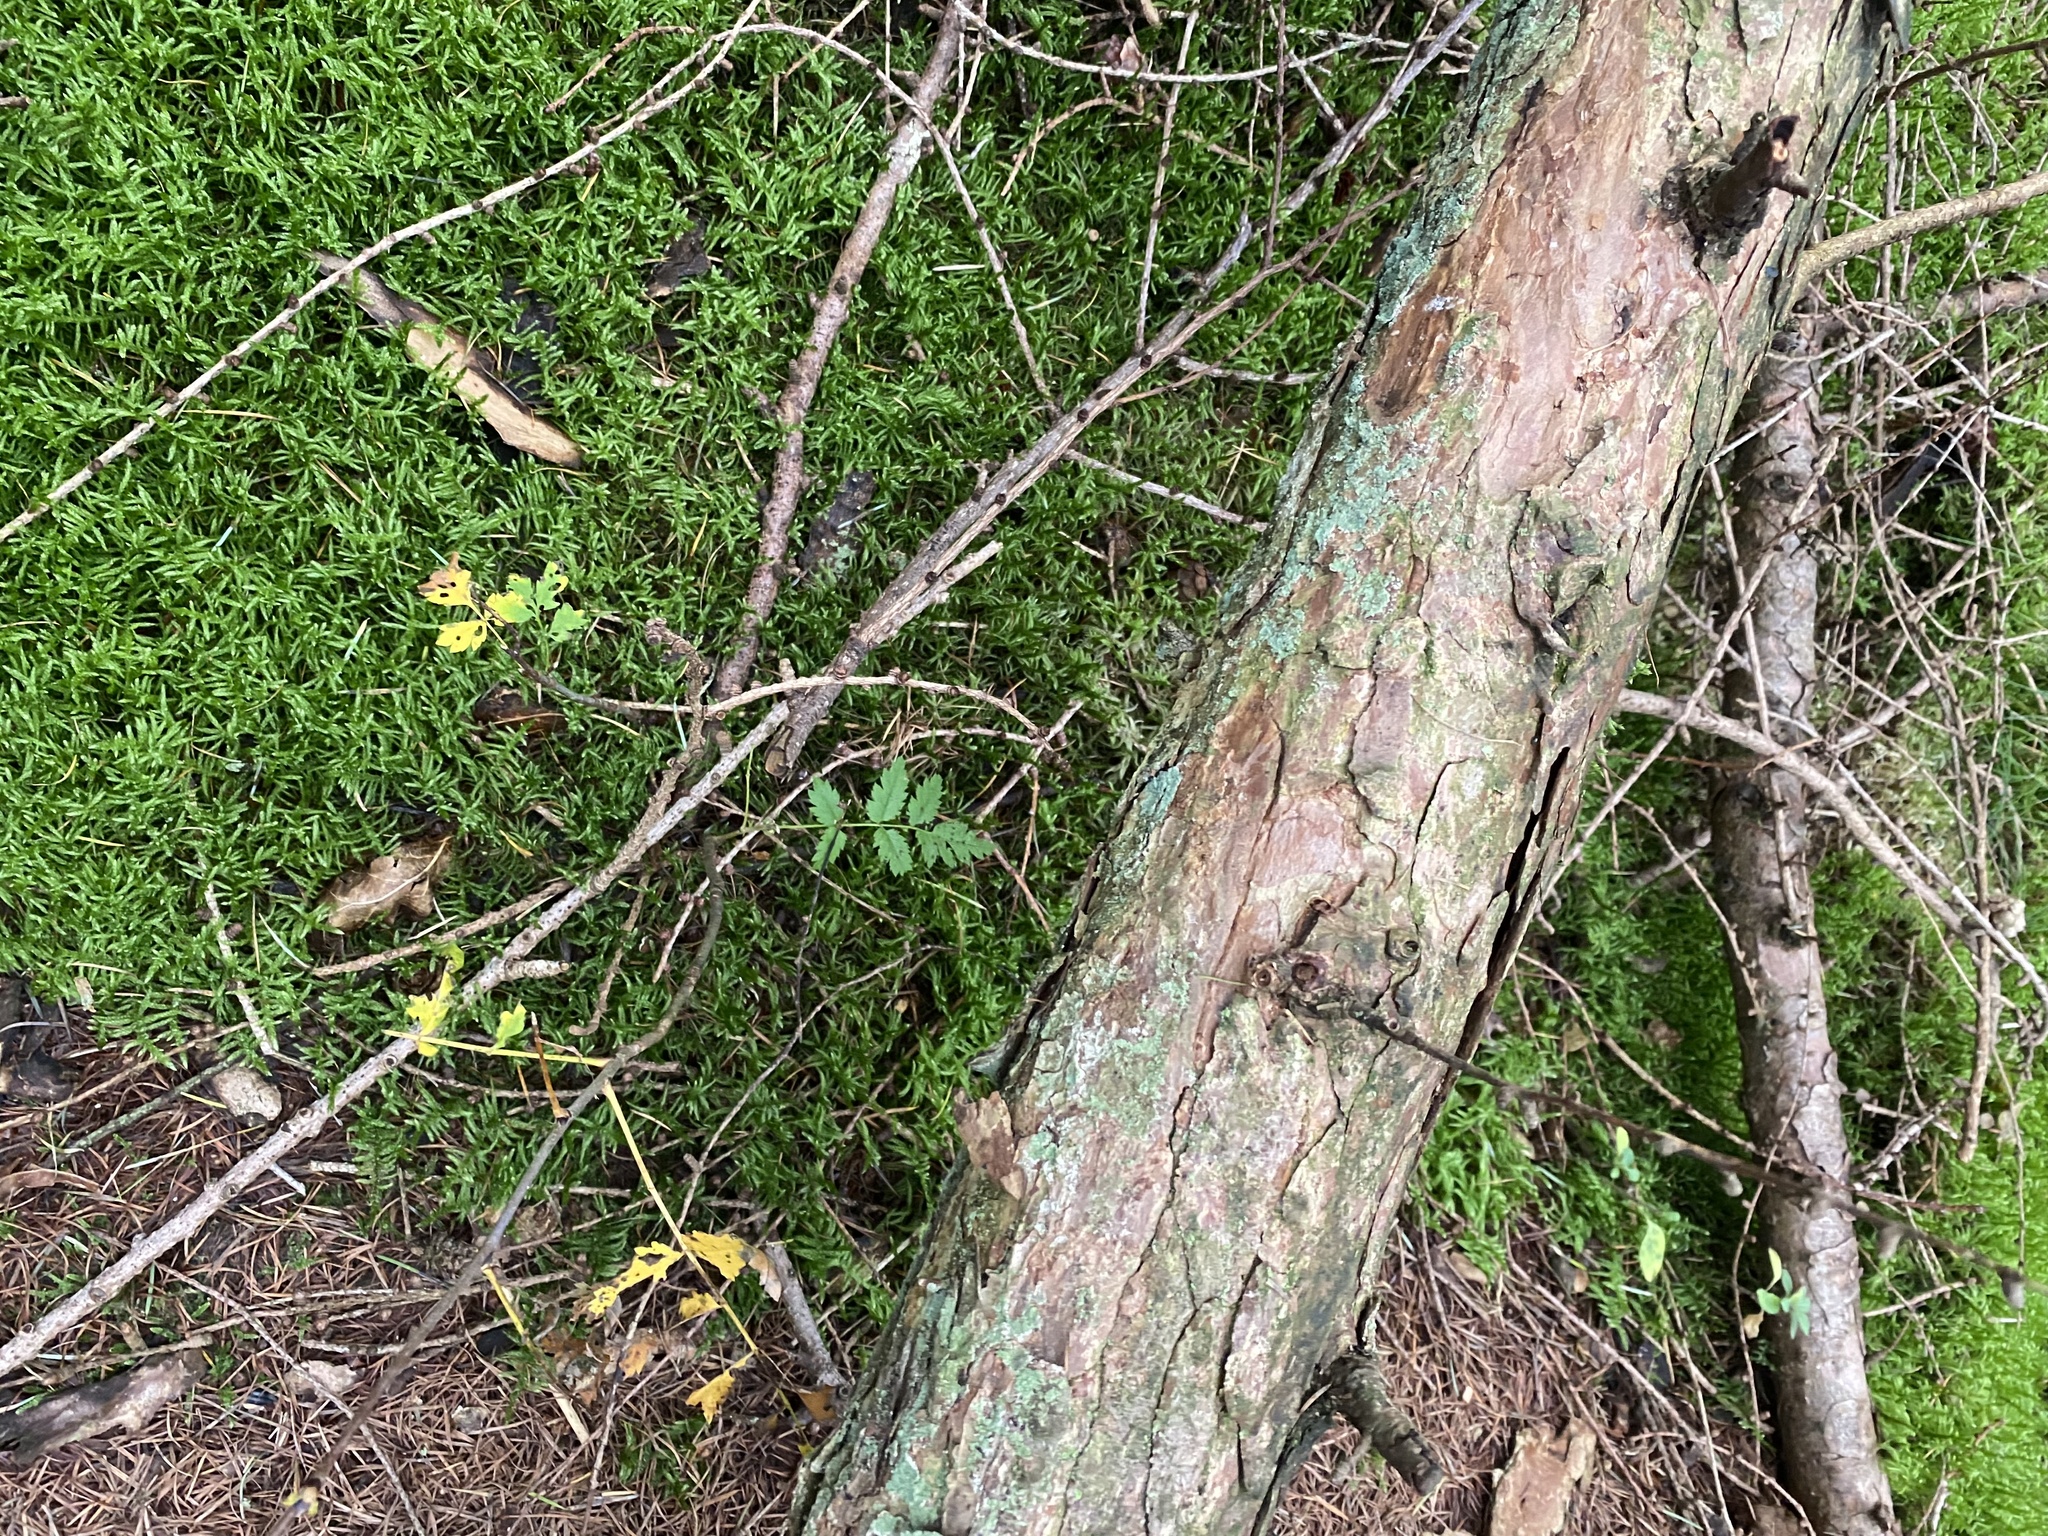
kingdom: Fungi
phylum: Basidiomycota
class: Agaricomycetes
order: Boletales
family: Boletaceae
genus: Imleria
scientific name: Imleria badia
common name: Bay bolete
